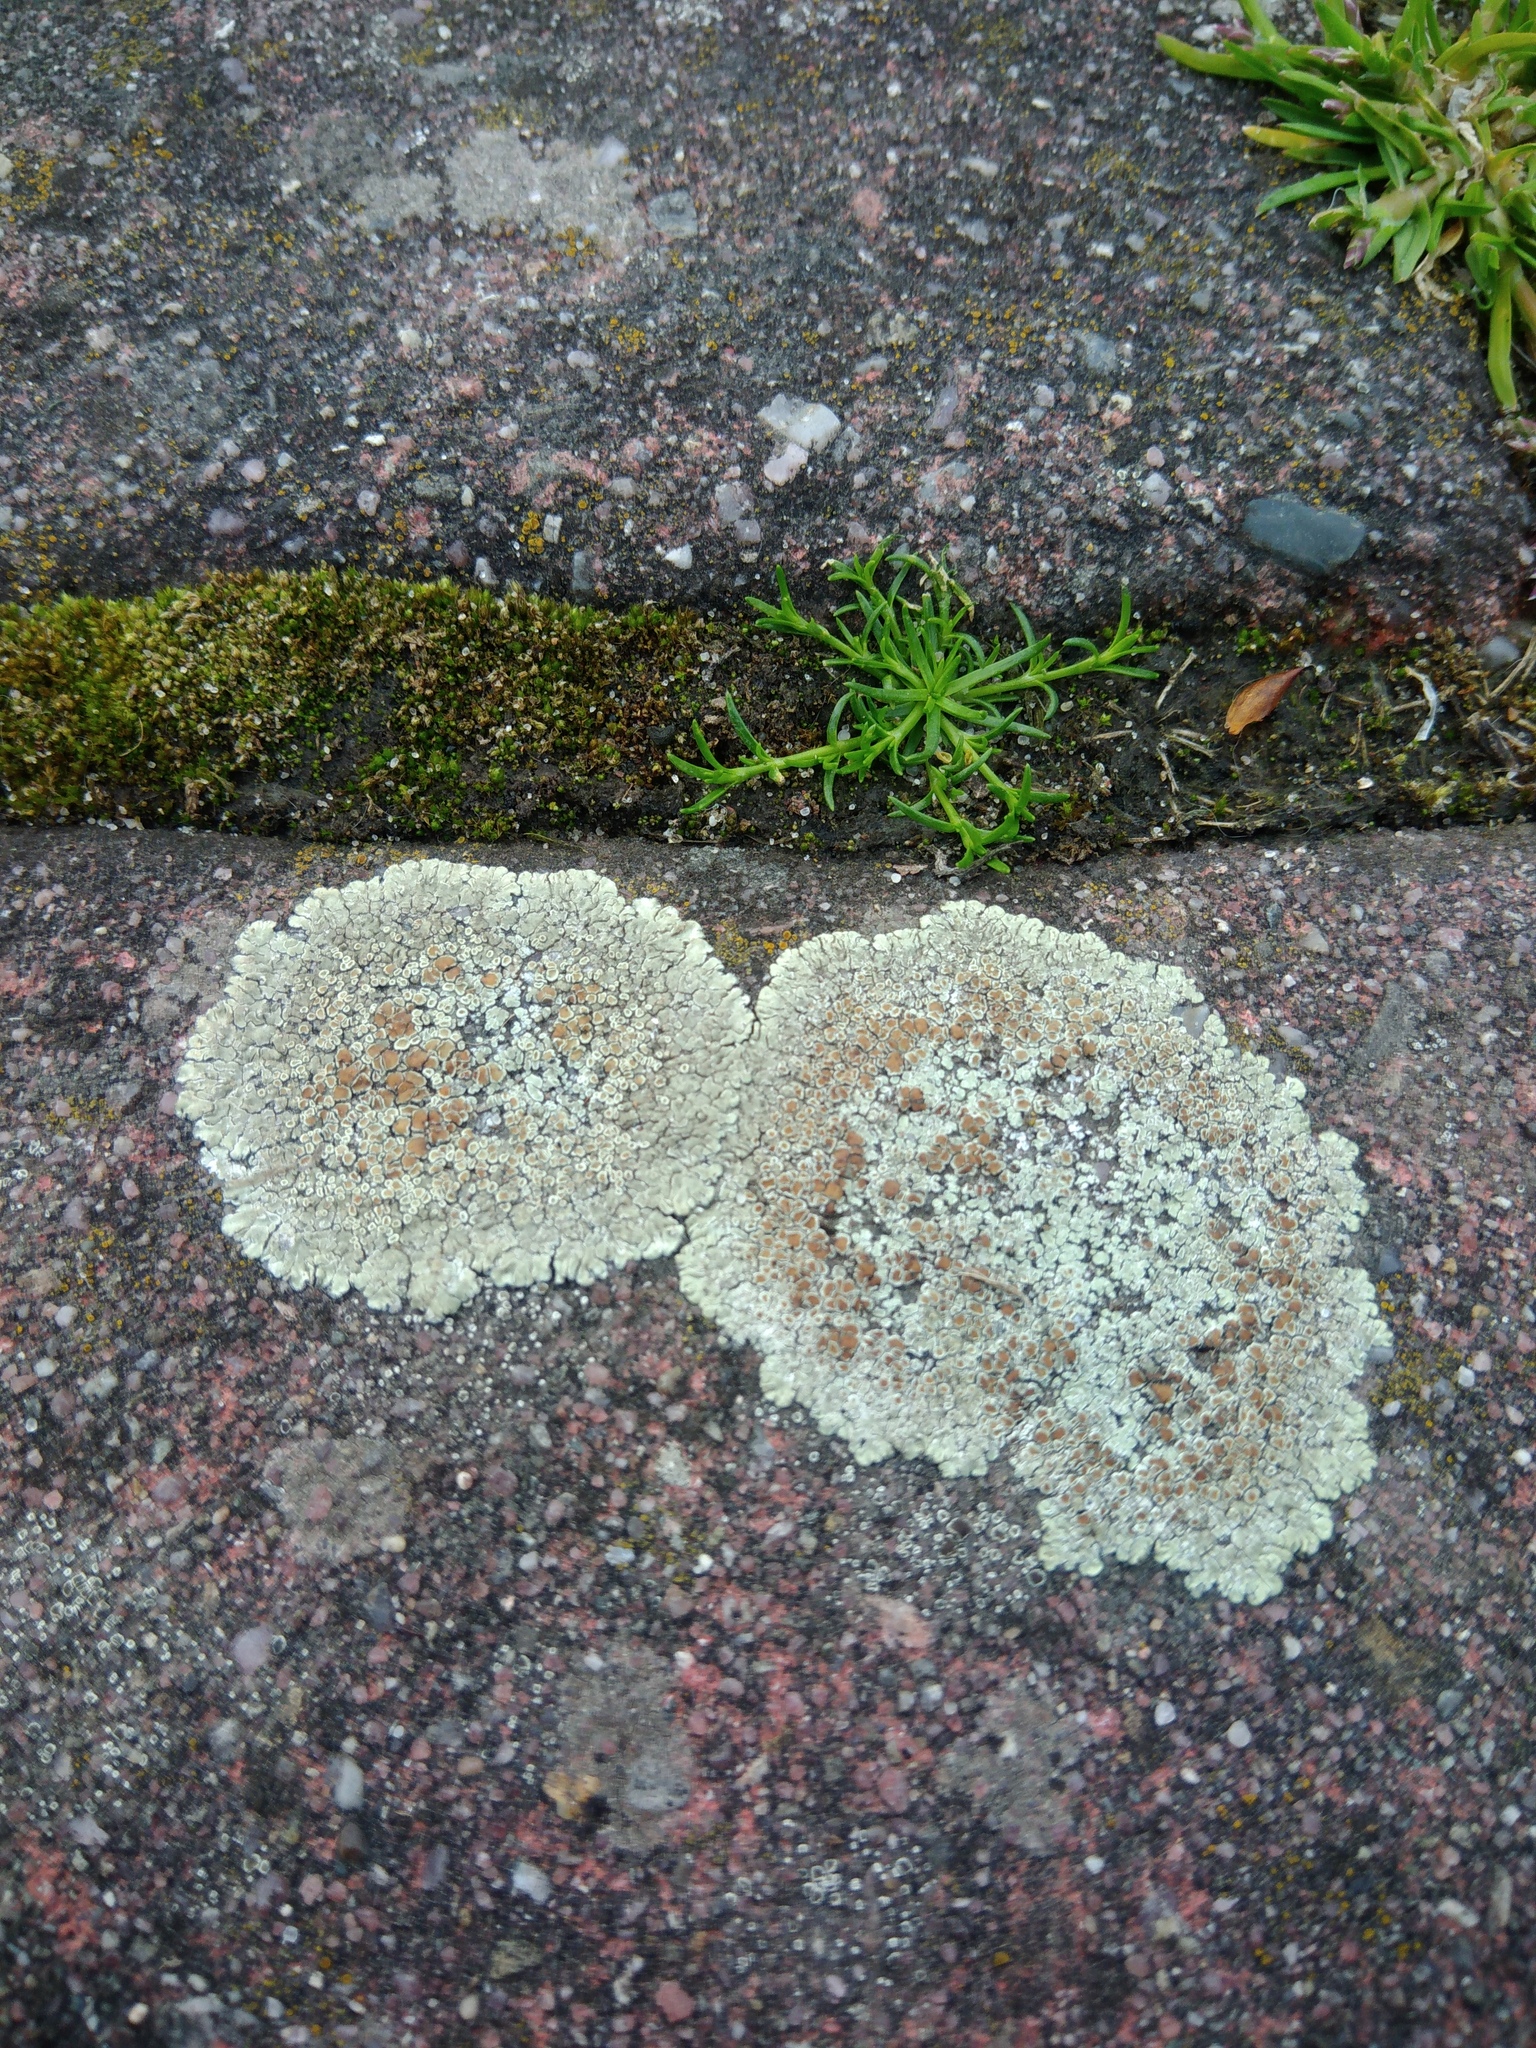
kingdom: Fungi
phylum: Ascomycota
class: Lecanoromycetes
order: Lecanorales
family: Lecanoraceae
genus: Protoparmeliopsis
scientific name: Protoparmeliopsis muralis
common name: Stonewall rim lichen
